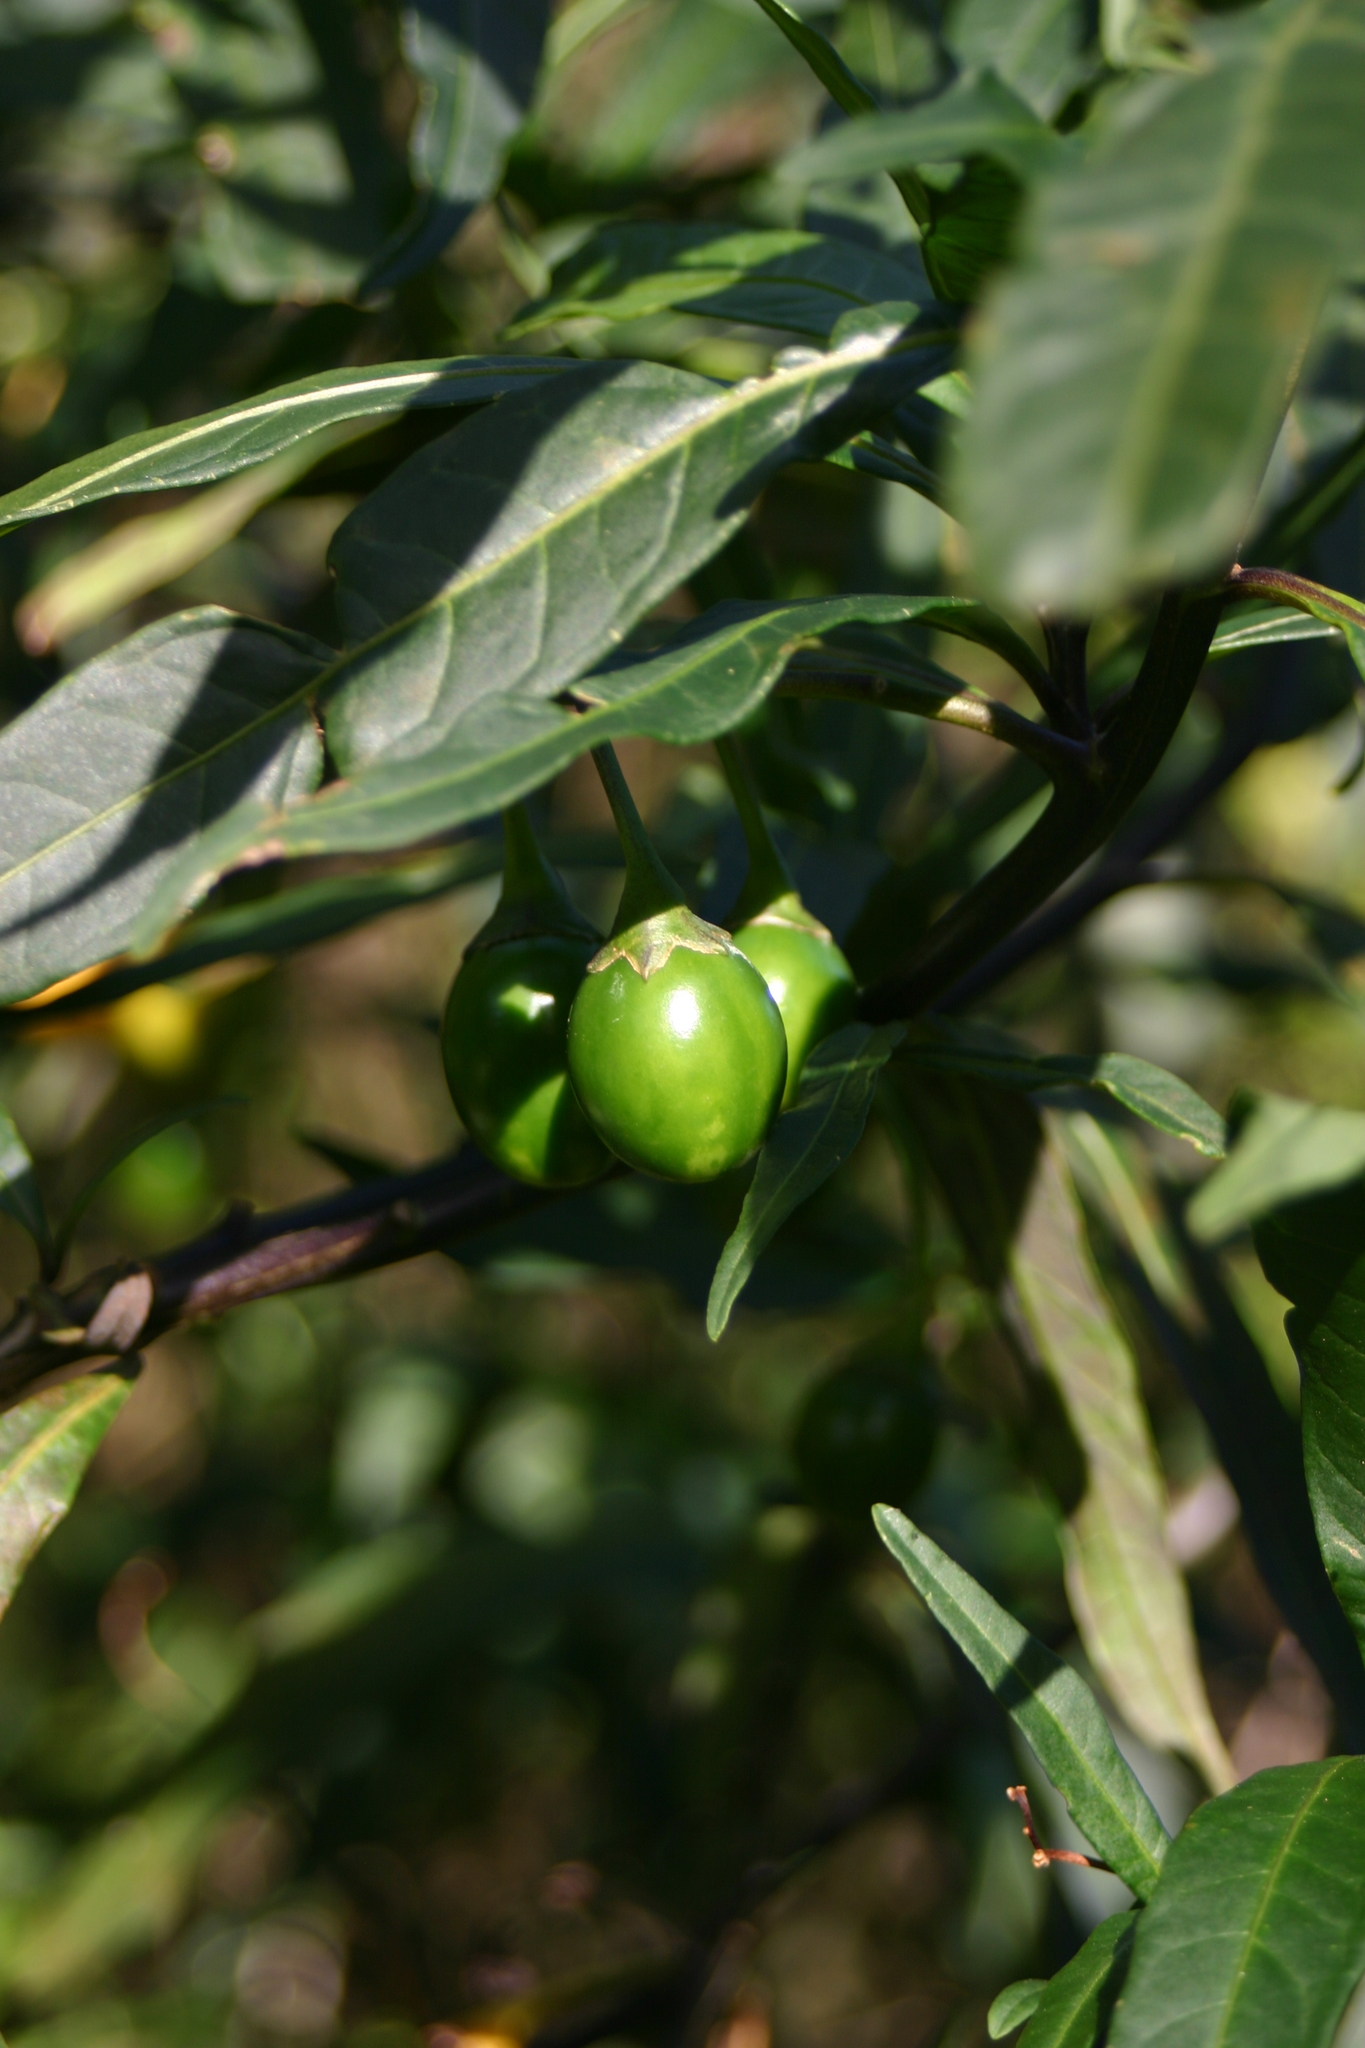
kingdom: Plantae
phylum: Tracheophyta
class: Magnoliopsida
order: Solanales
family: Solanaceae
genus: Solanum
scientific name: Solanum laciniatum
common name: Kangaroo-apple
